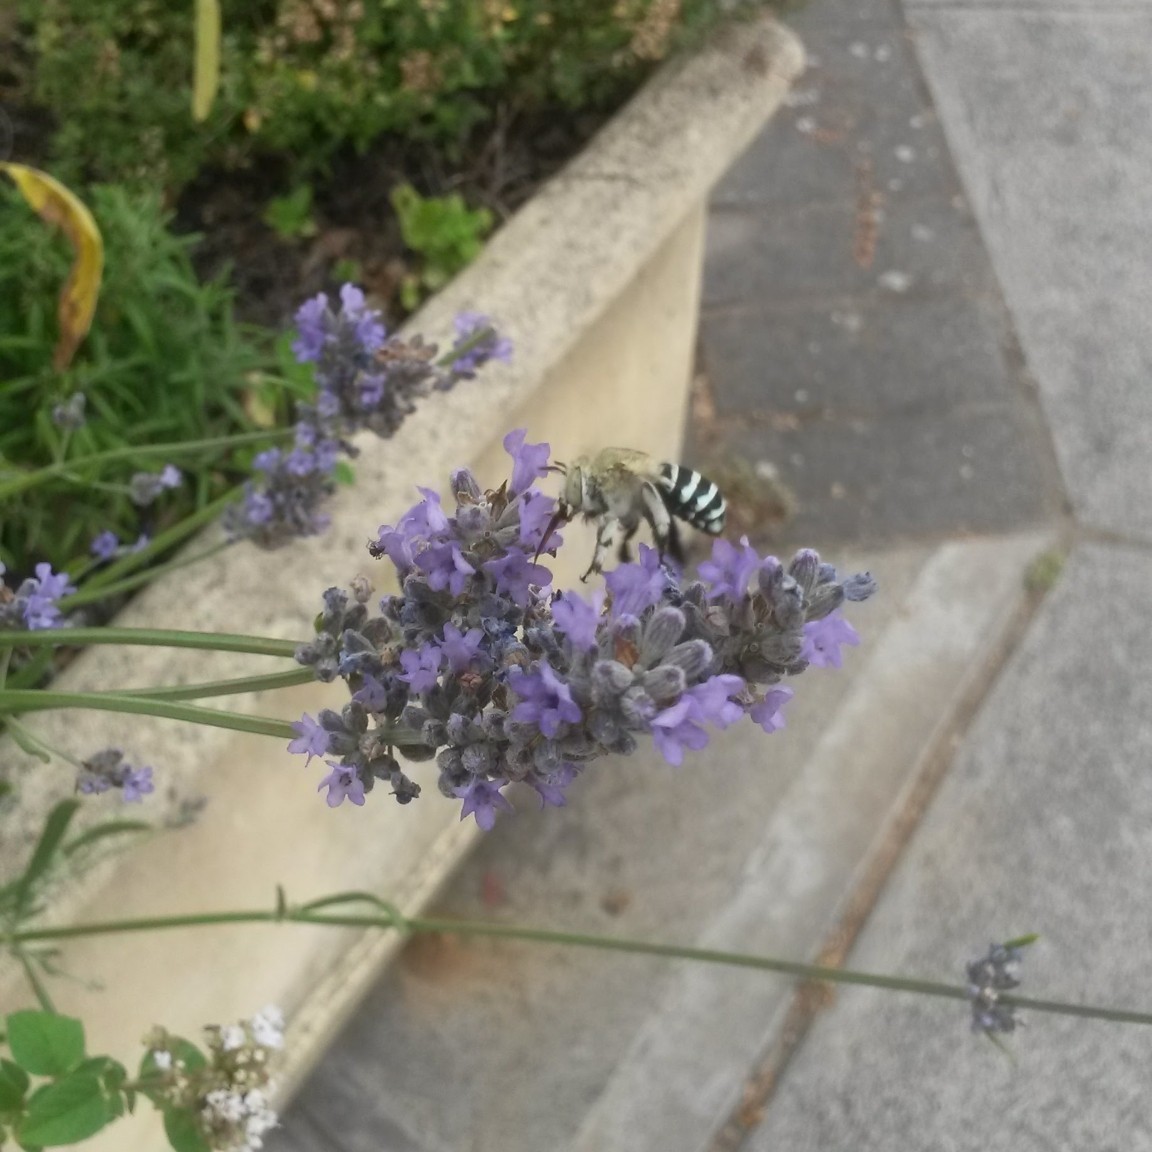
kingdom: Animalia
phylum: Arthropoda
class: Insecta
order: Hymenoptera
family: Apidae
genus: Amegilla
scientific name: Amegilla chlorocyanea
